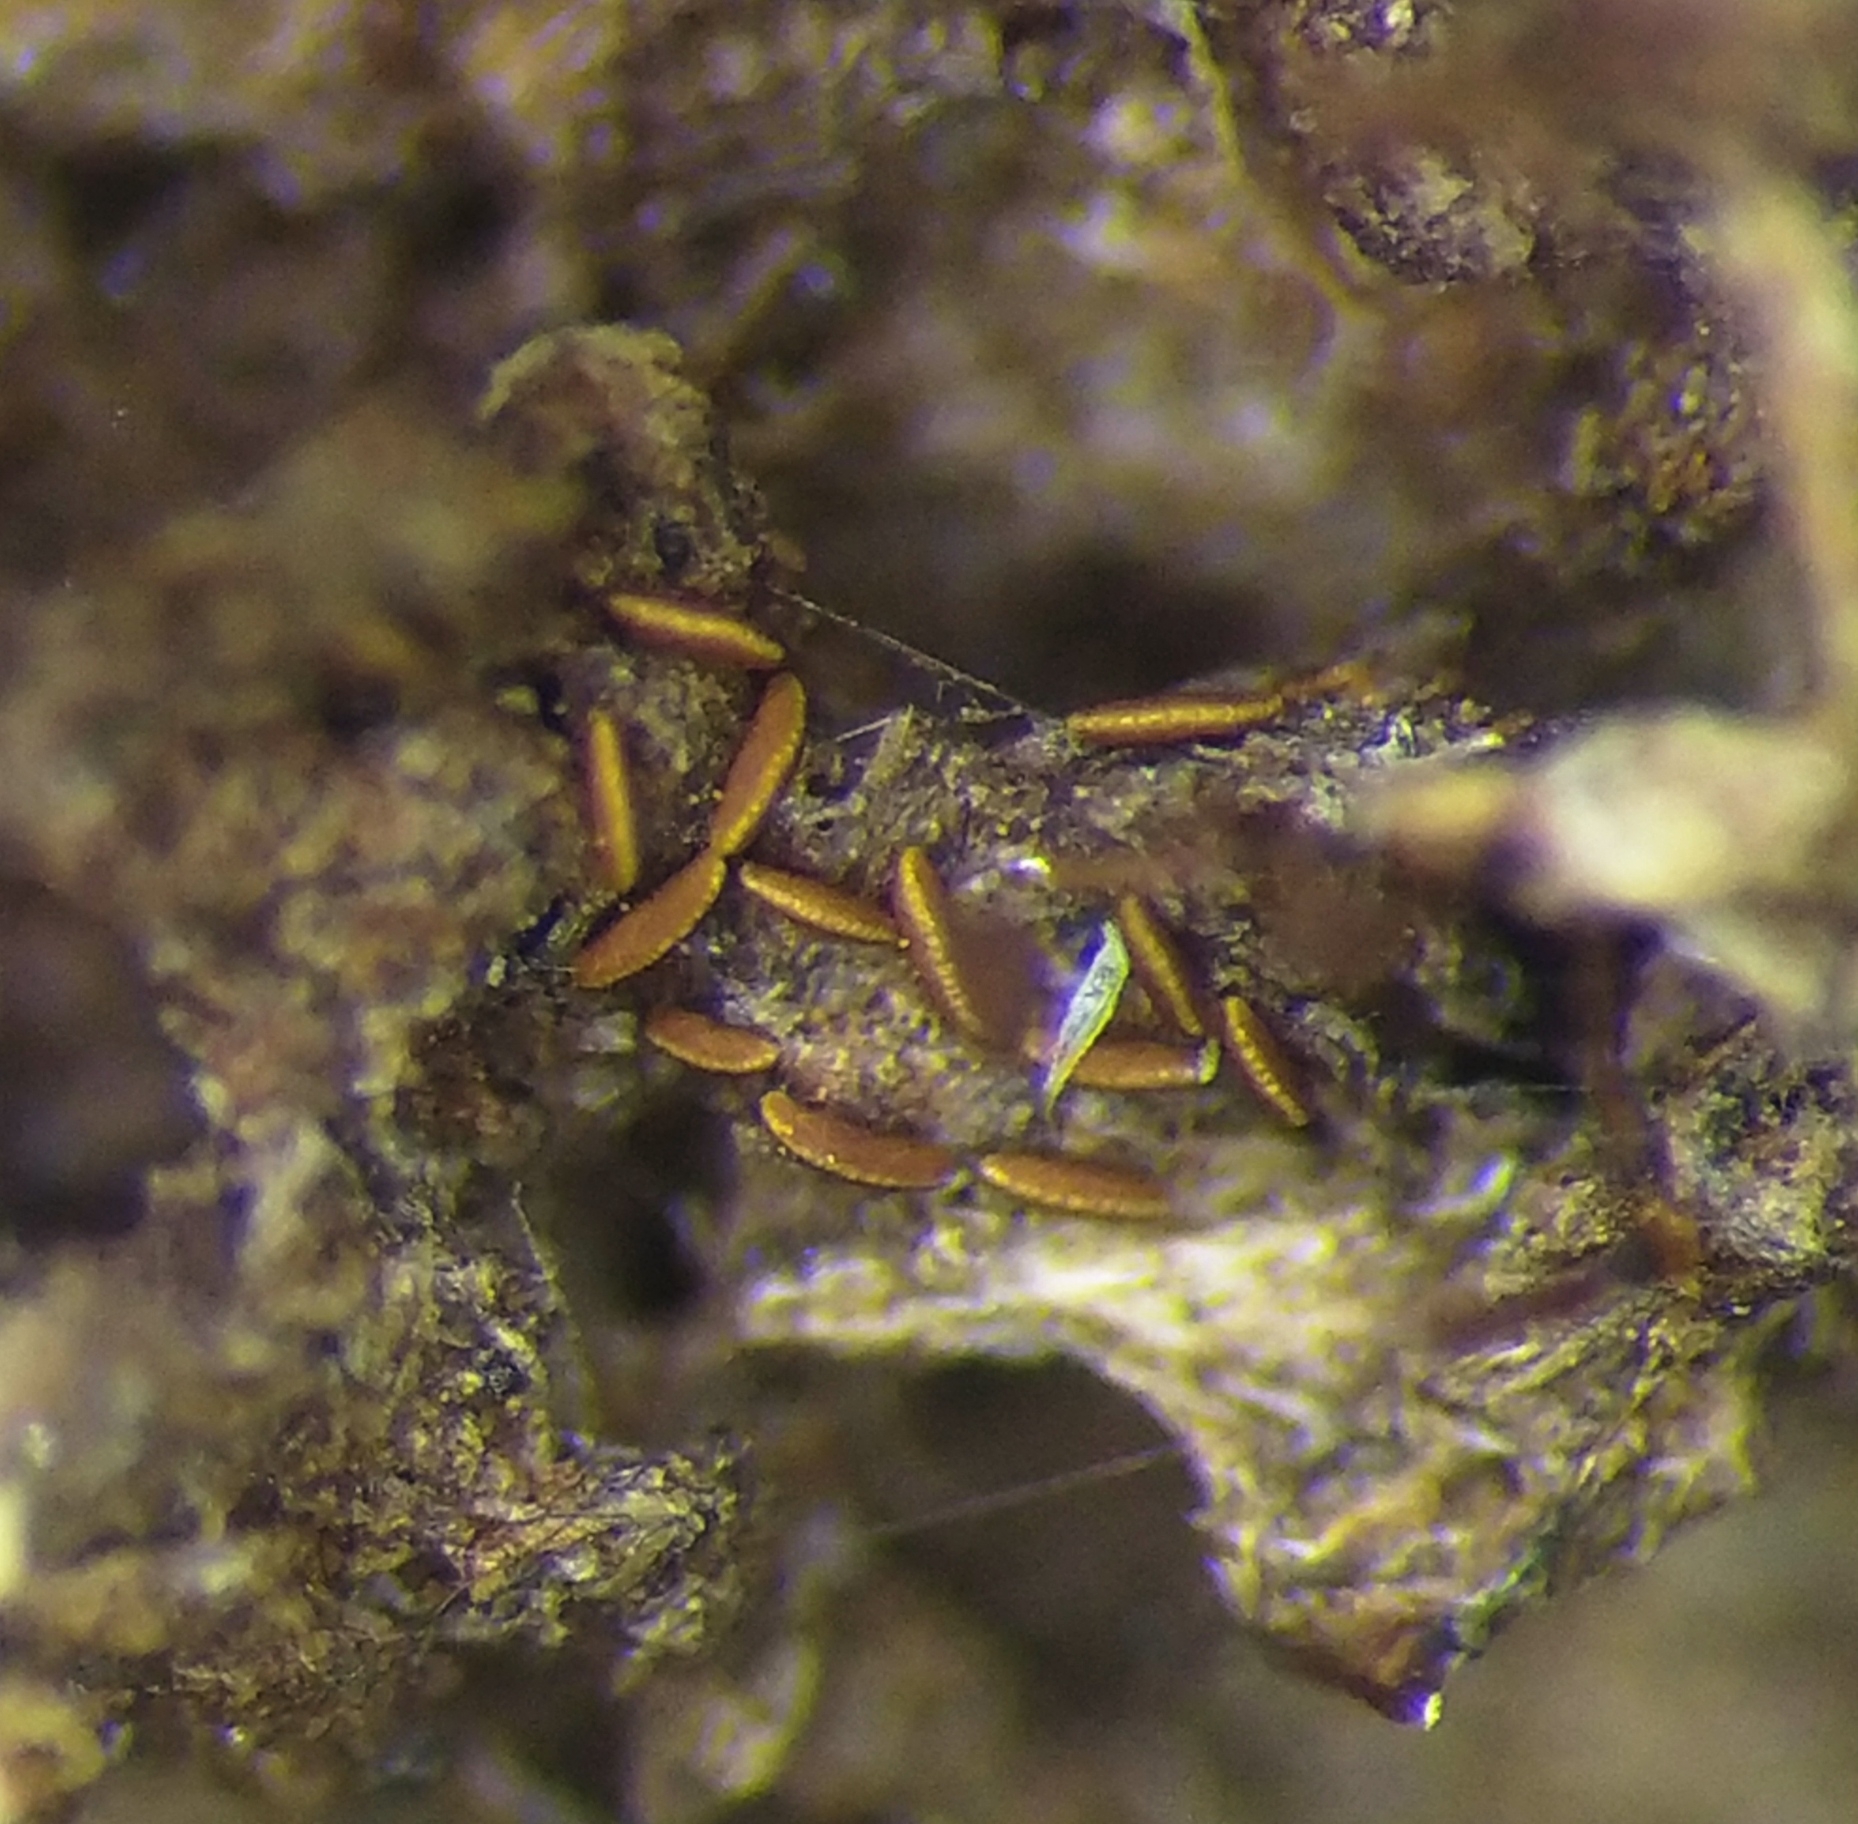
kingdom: Protozoa
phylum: Mycetozoa
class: Myxomycetes
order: Cribrariales
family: Liceaceae
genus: Licea
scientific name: Licea biforis
